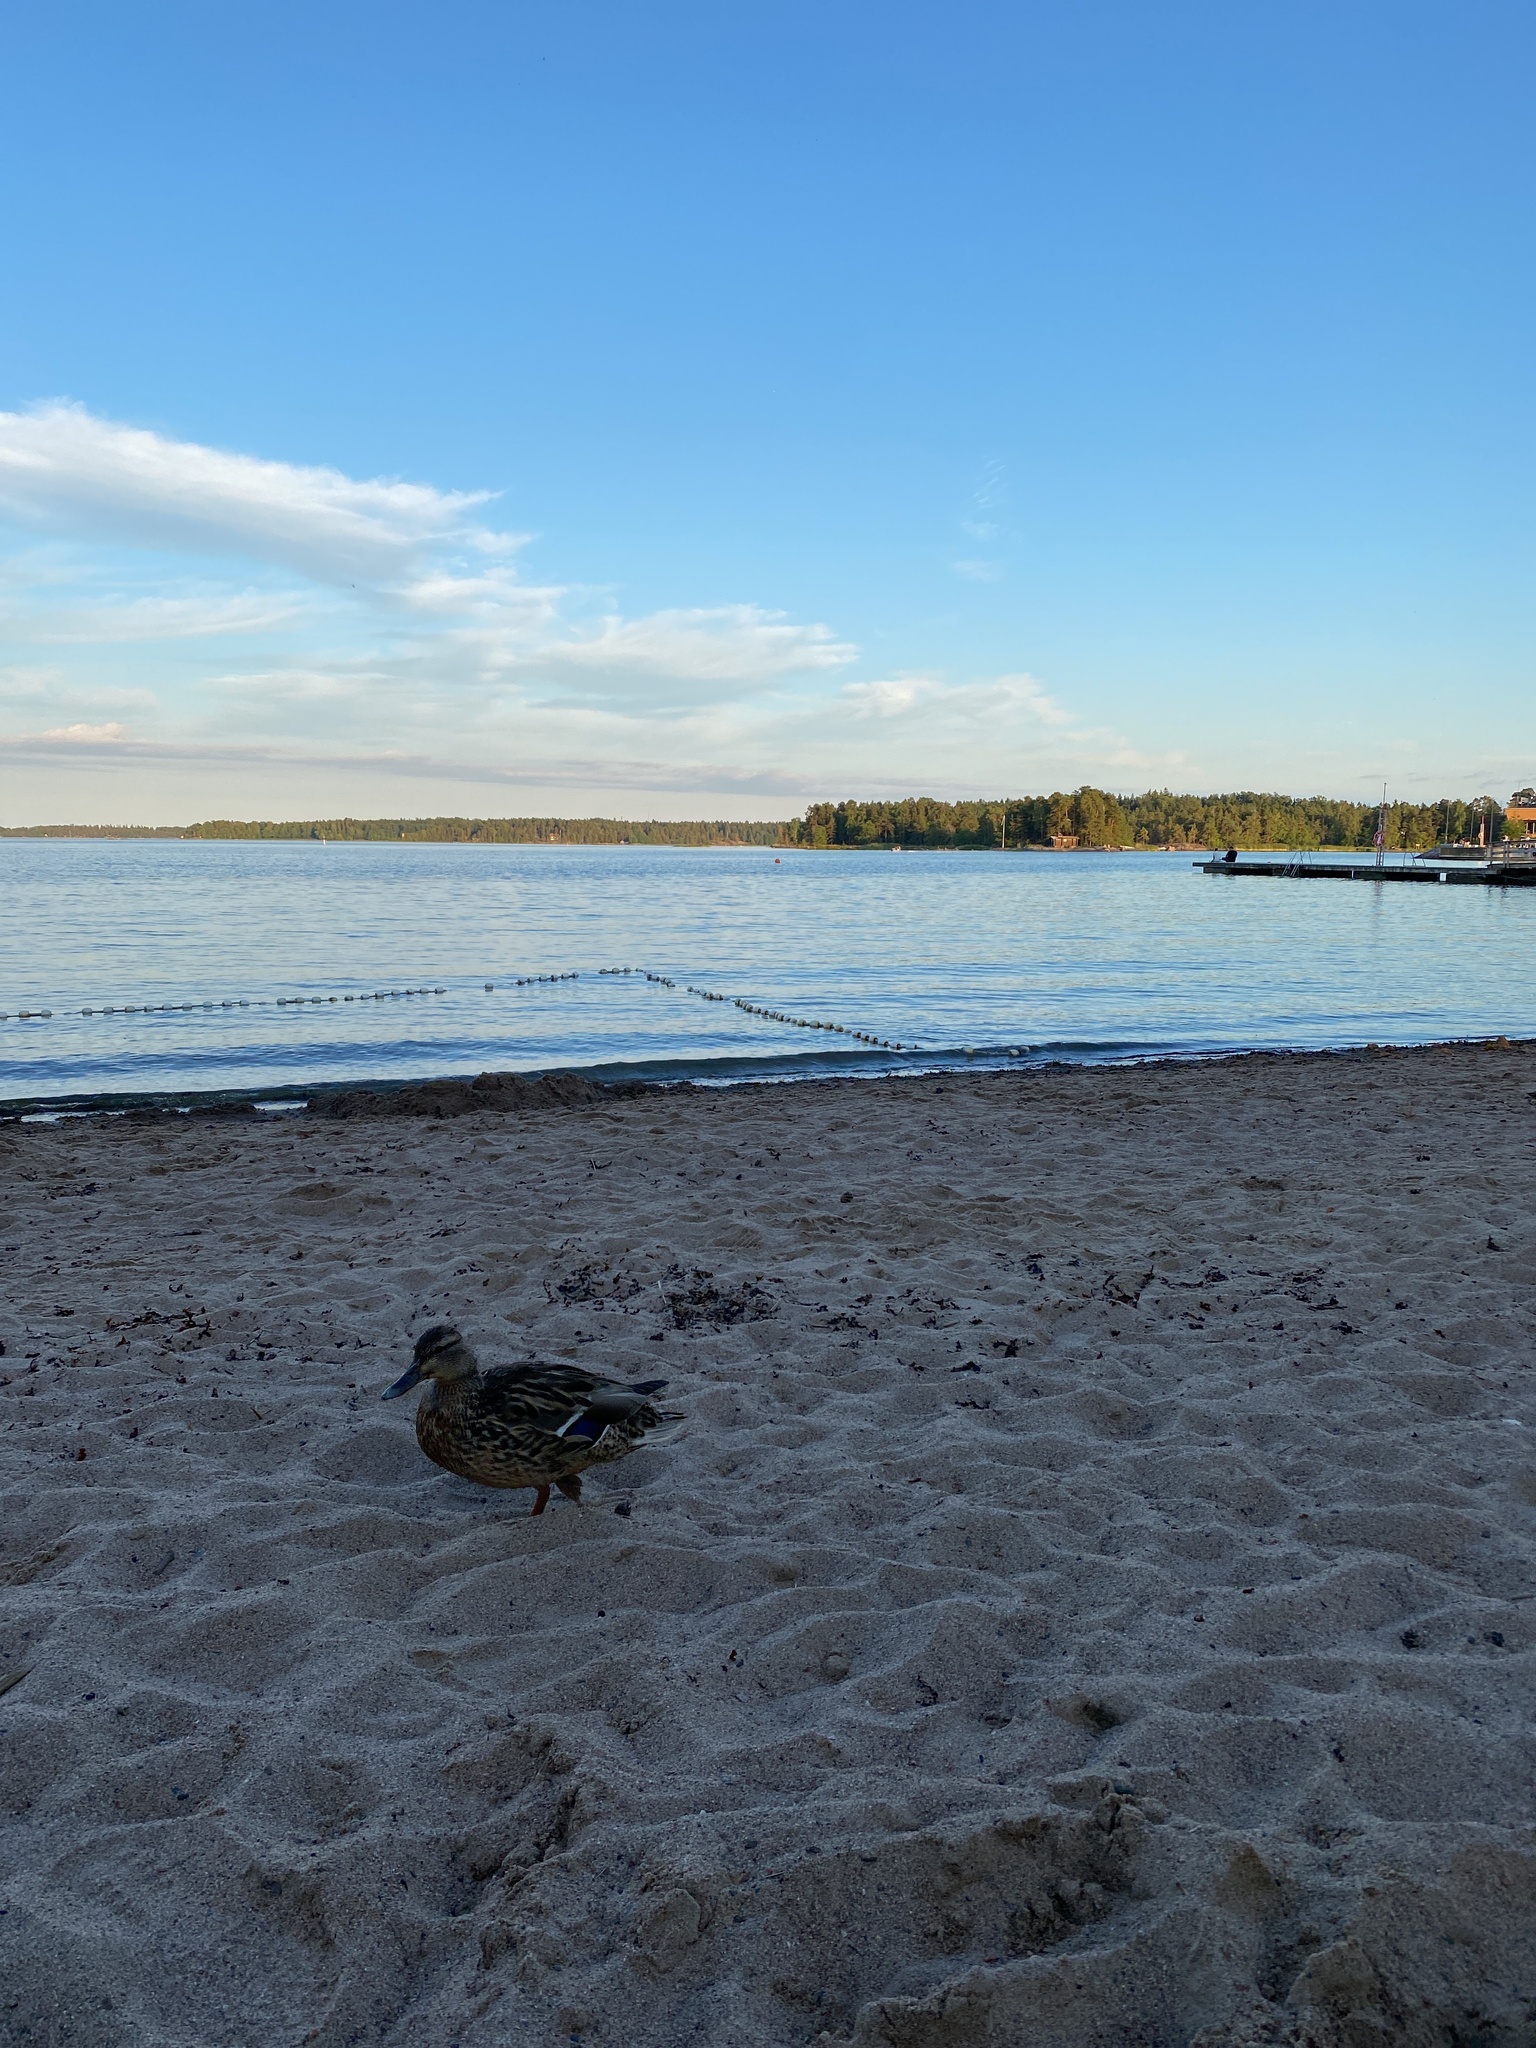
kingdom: Animalia
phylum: Chordata
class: Aves
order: Anseriformes
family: Anatidae
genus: Anas
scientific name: Anas platyrhynchos
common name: Mallard
